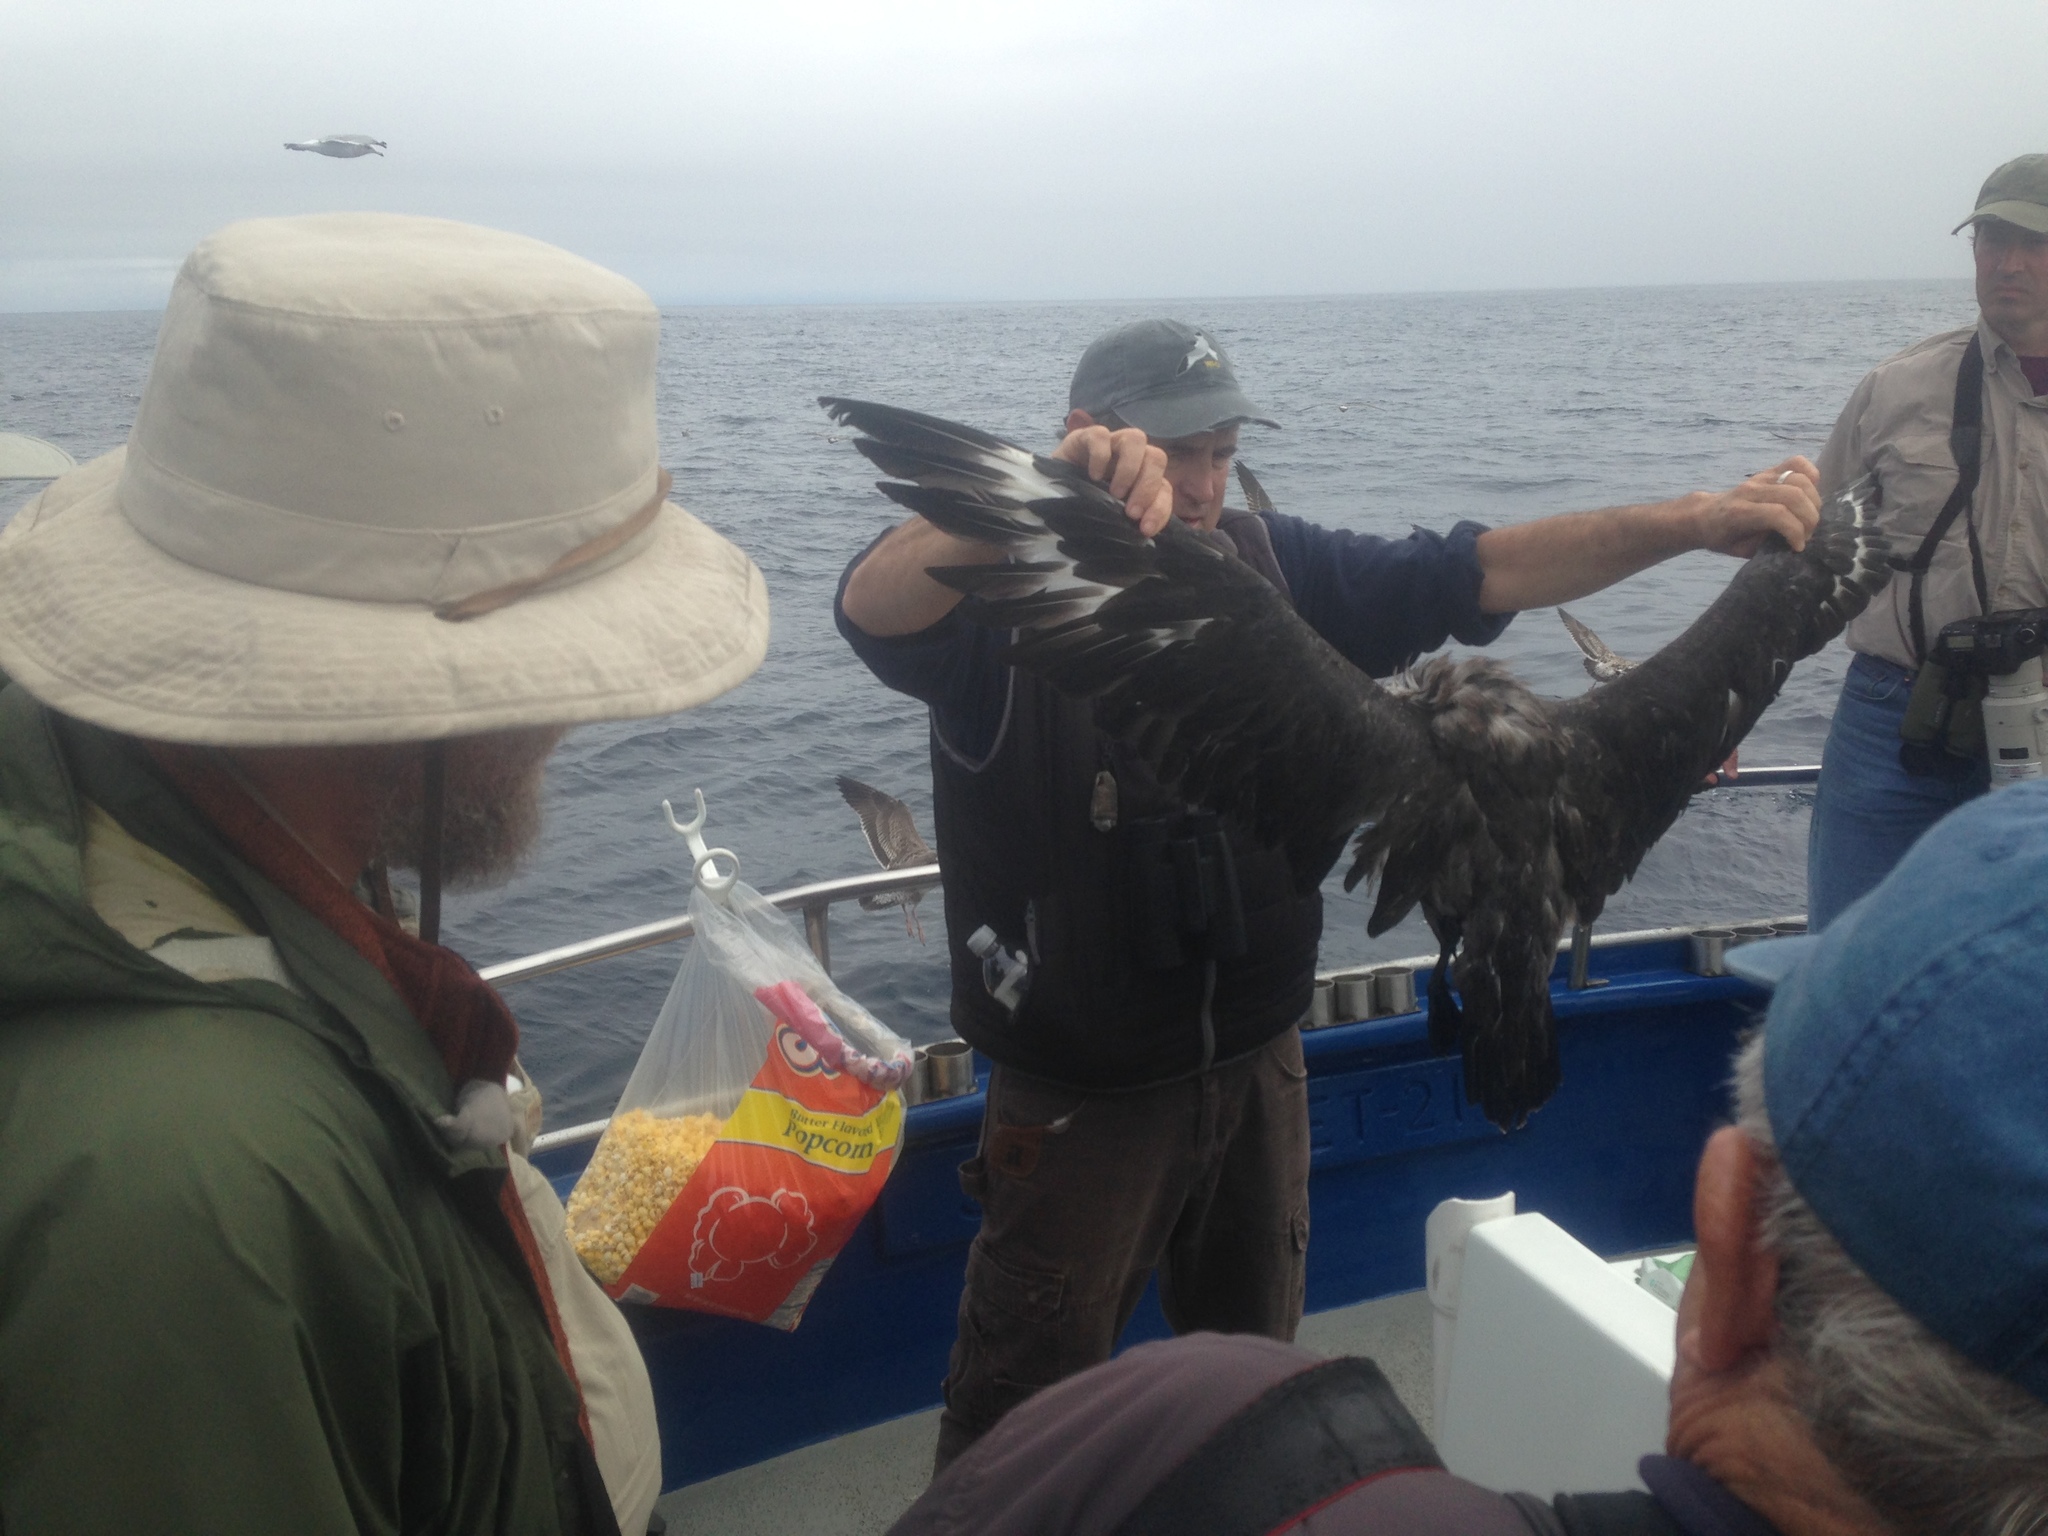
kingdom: Animalia
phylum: Chordata
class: Aves
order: Charadriiformes
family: Stercorariidae
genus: Stercorarius
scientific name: Stercorarius maccormicki
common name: South polar skua
